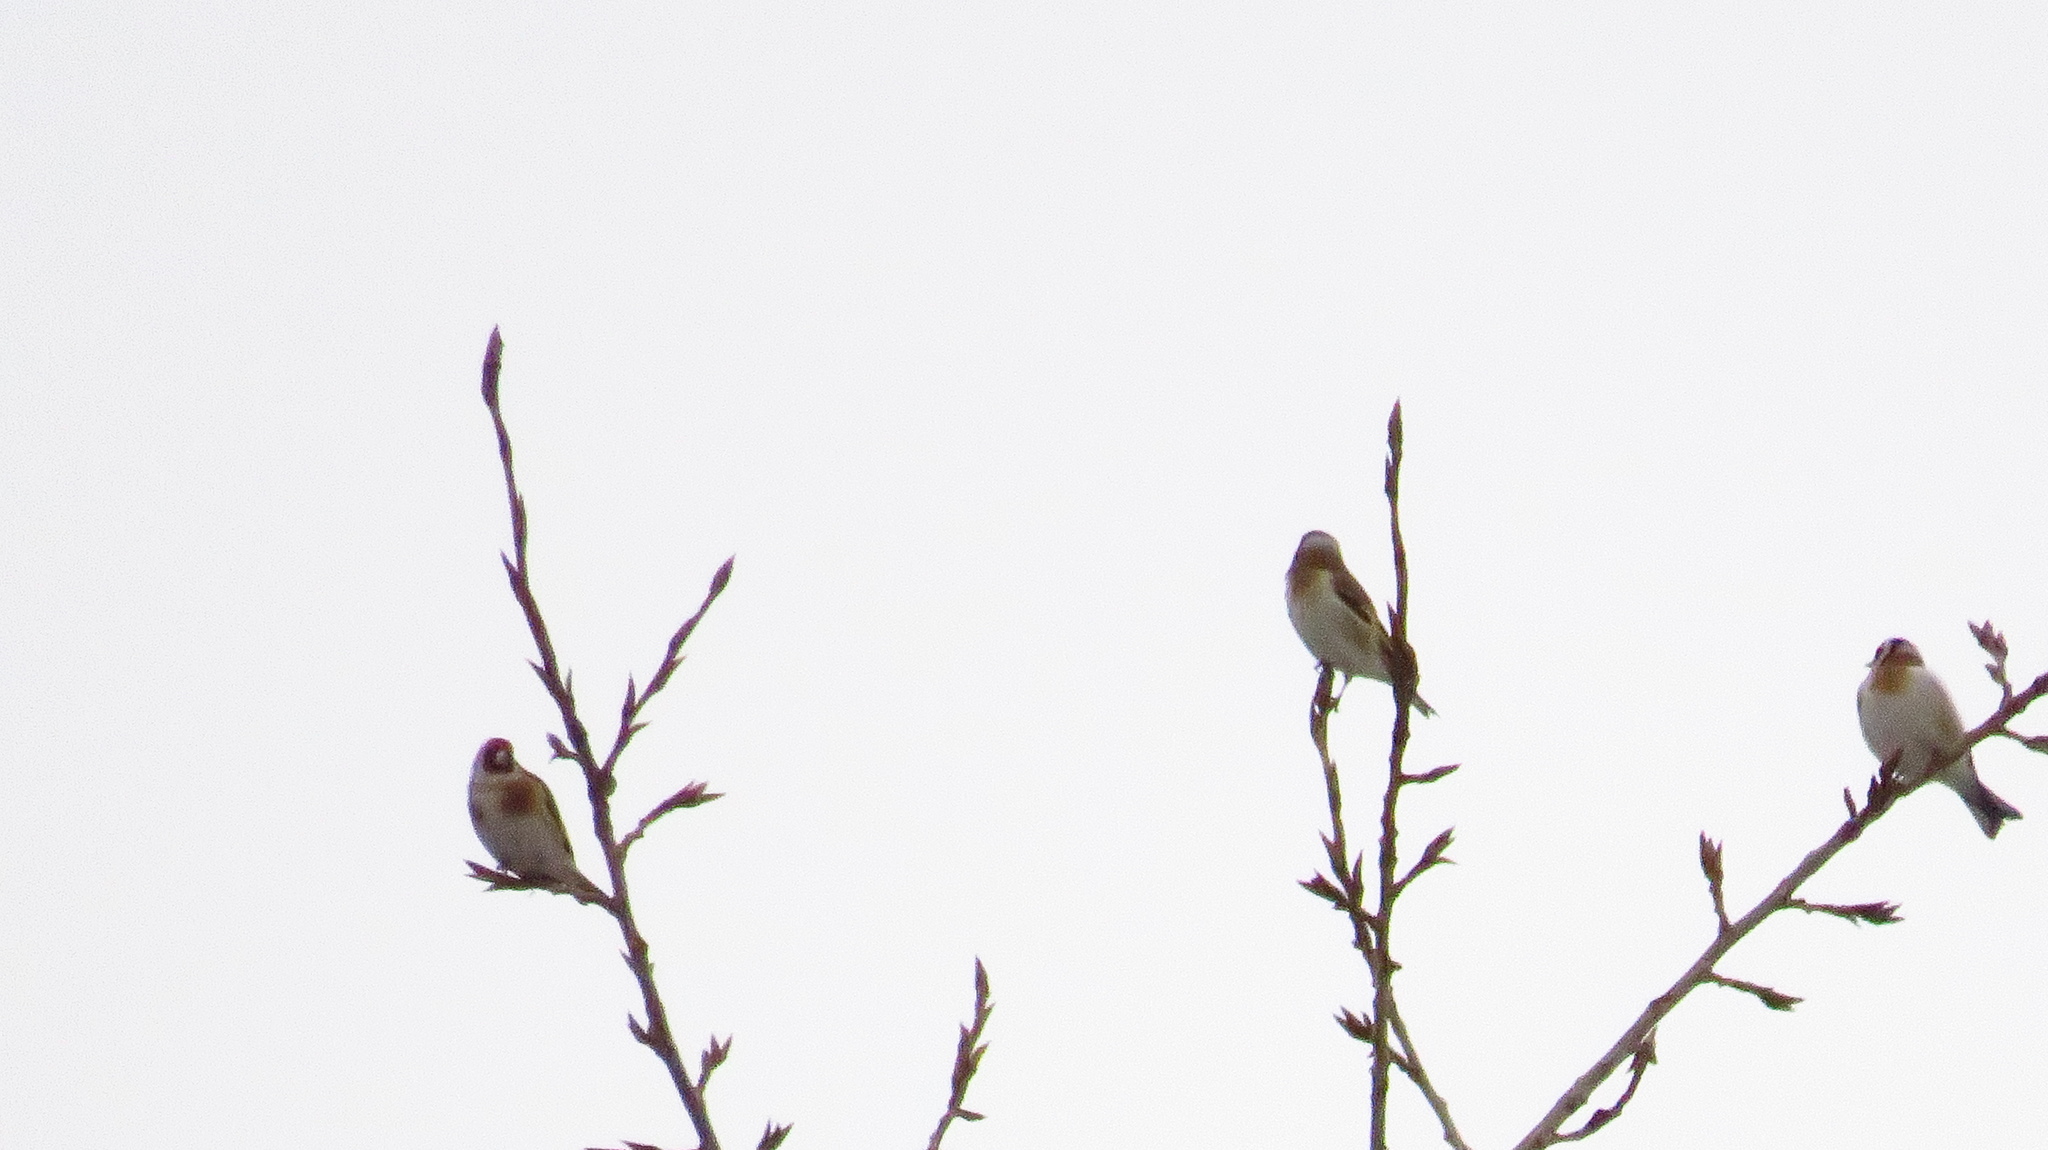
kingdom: Animalia
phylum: Chordata
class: Aves
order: Passeriformes
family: Fringillidae
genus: Carduelis
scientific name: Carduelis carduelis
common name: European goldfinch
